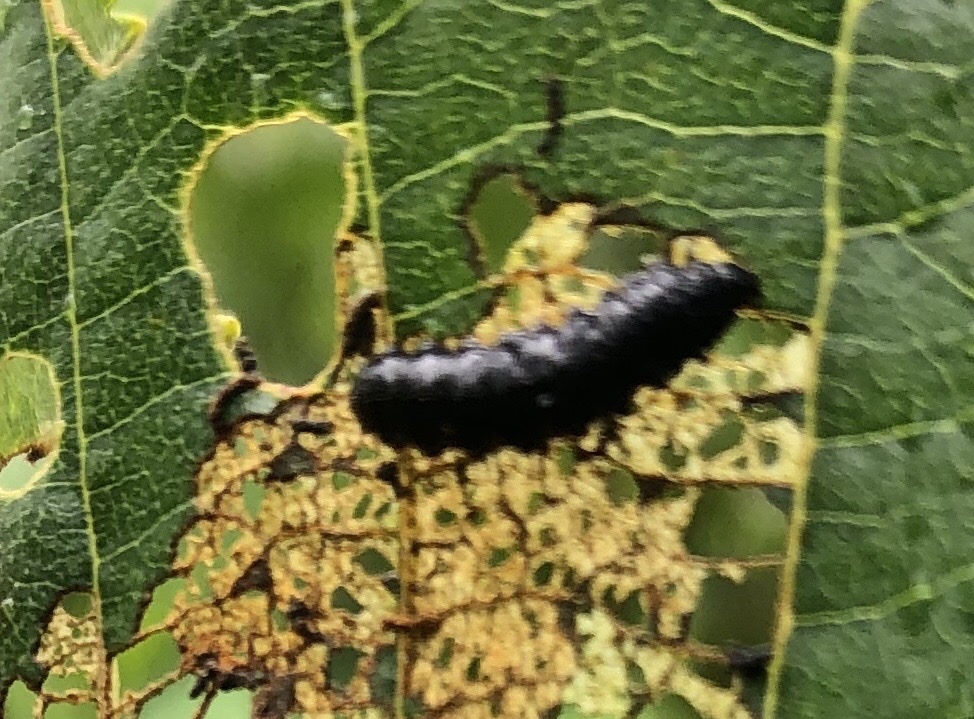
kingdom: Animalia
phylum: Arthropoda
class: Insecta
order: Coleoptera
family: Chrysomelidae
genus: Agelastica
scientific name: Agelastica alni
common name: Alder leaf beetle
